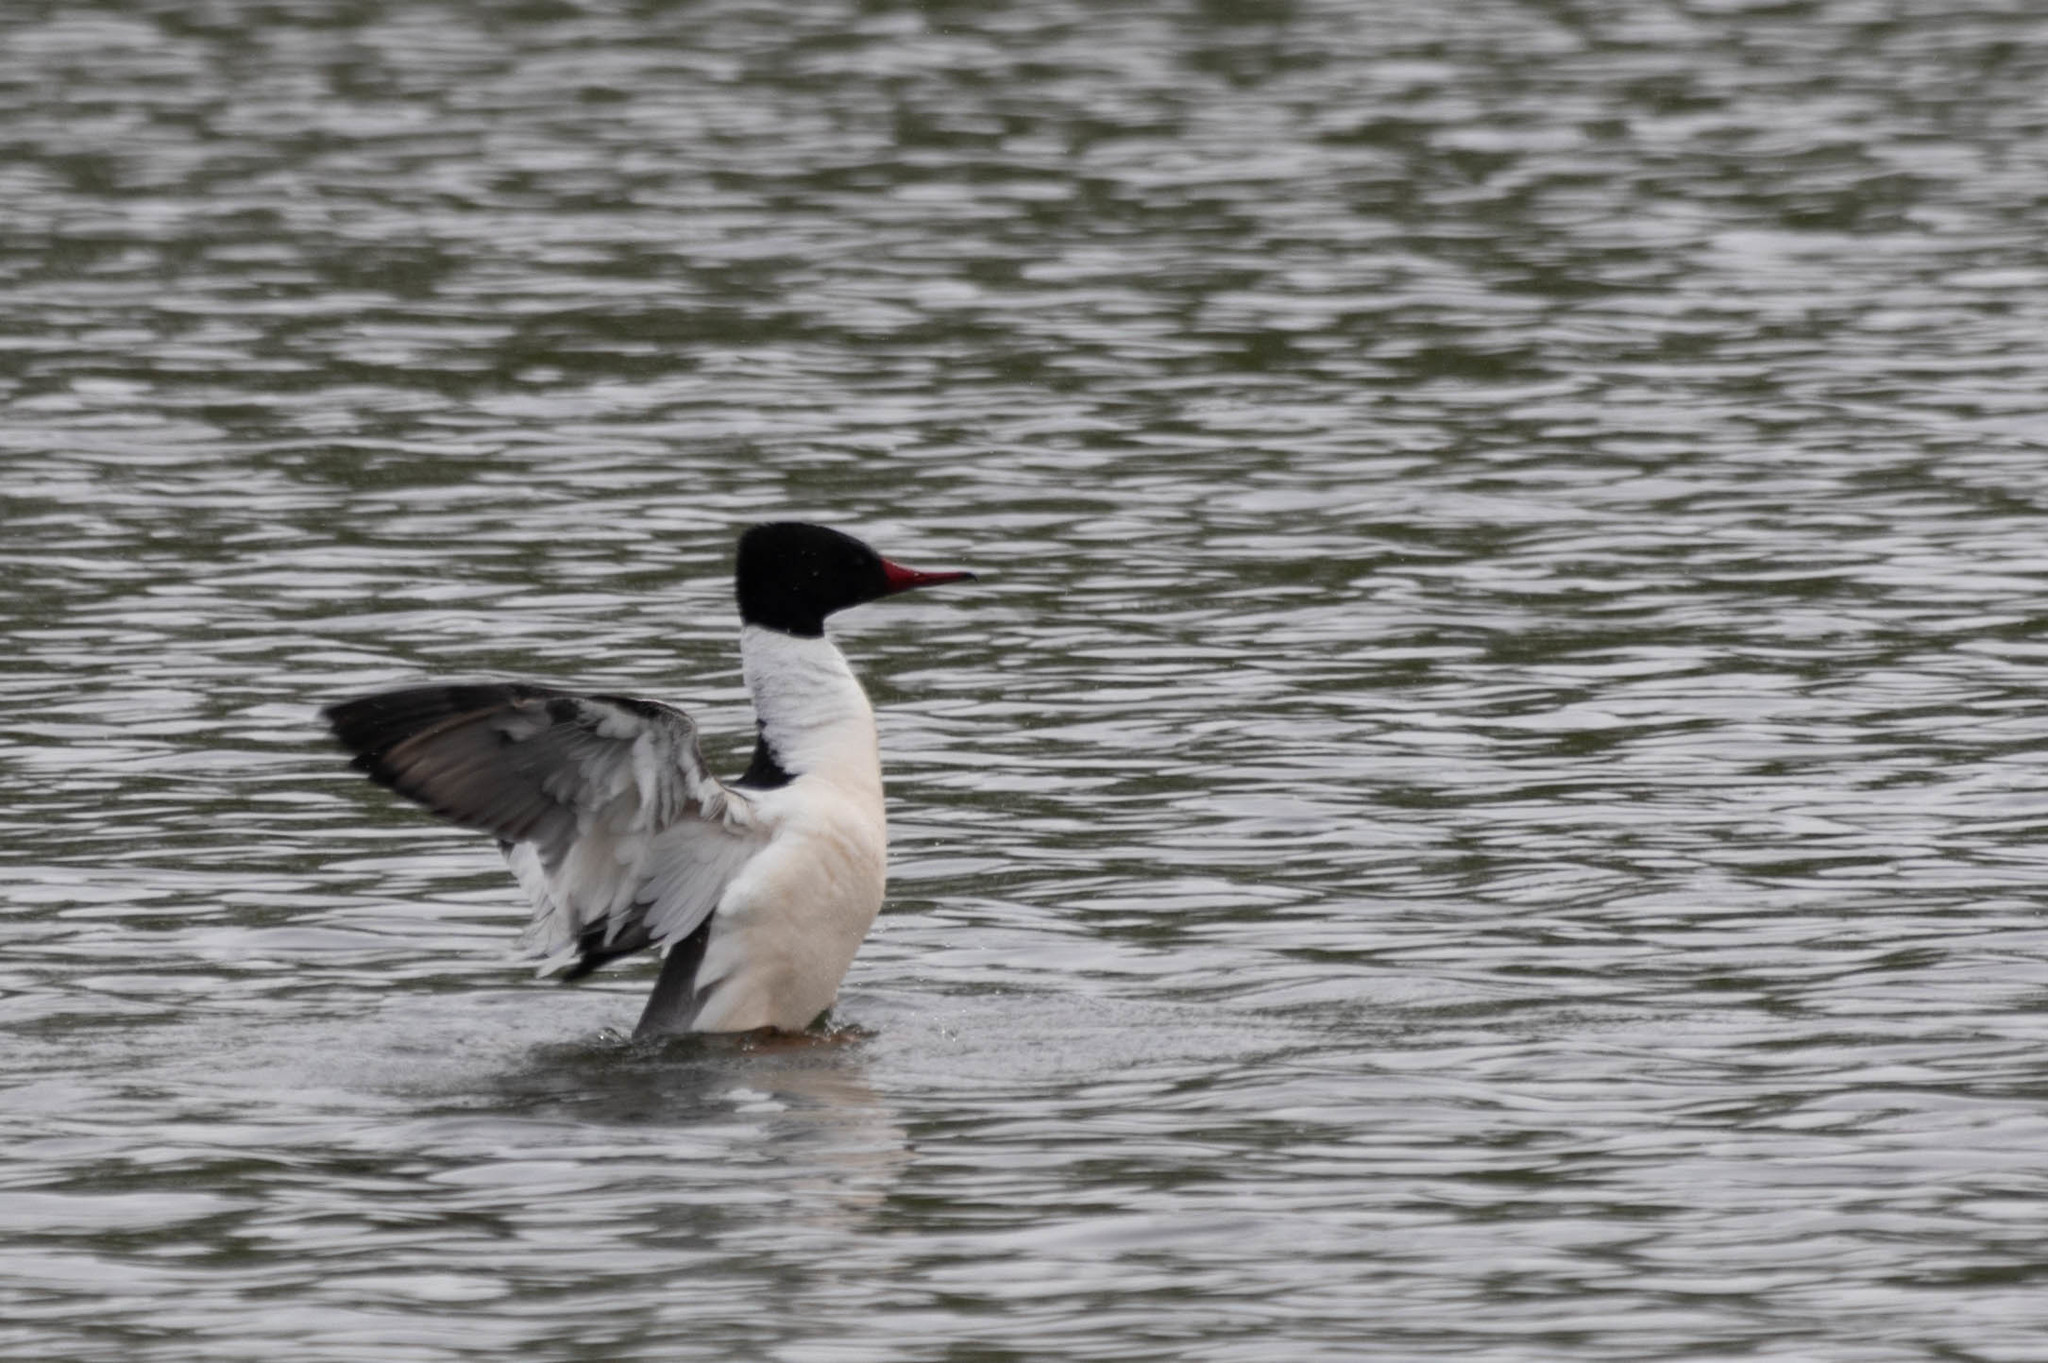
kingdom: Animalia
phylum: Chordata
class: Aves
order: Anseriformes
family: Anatidae
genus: Mergus
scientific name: Mergus merganser
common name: Common merganser
